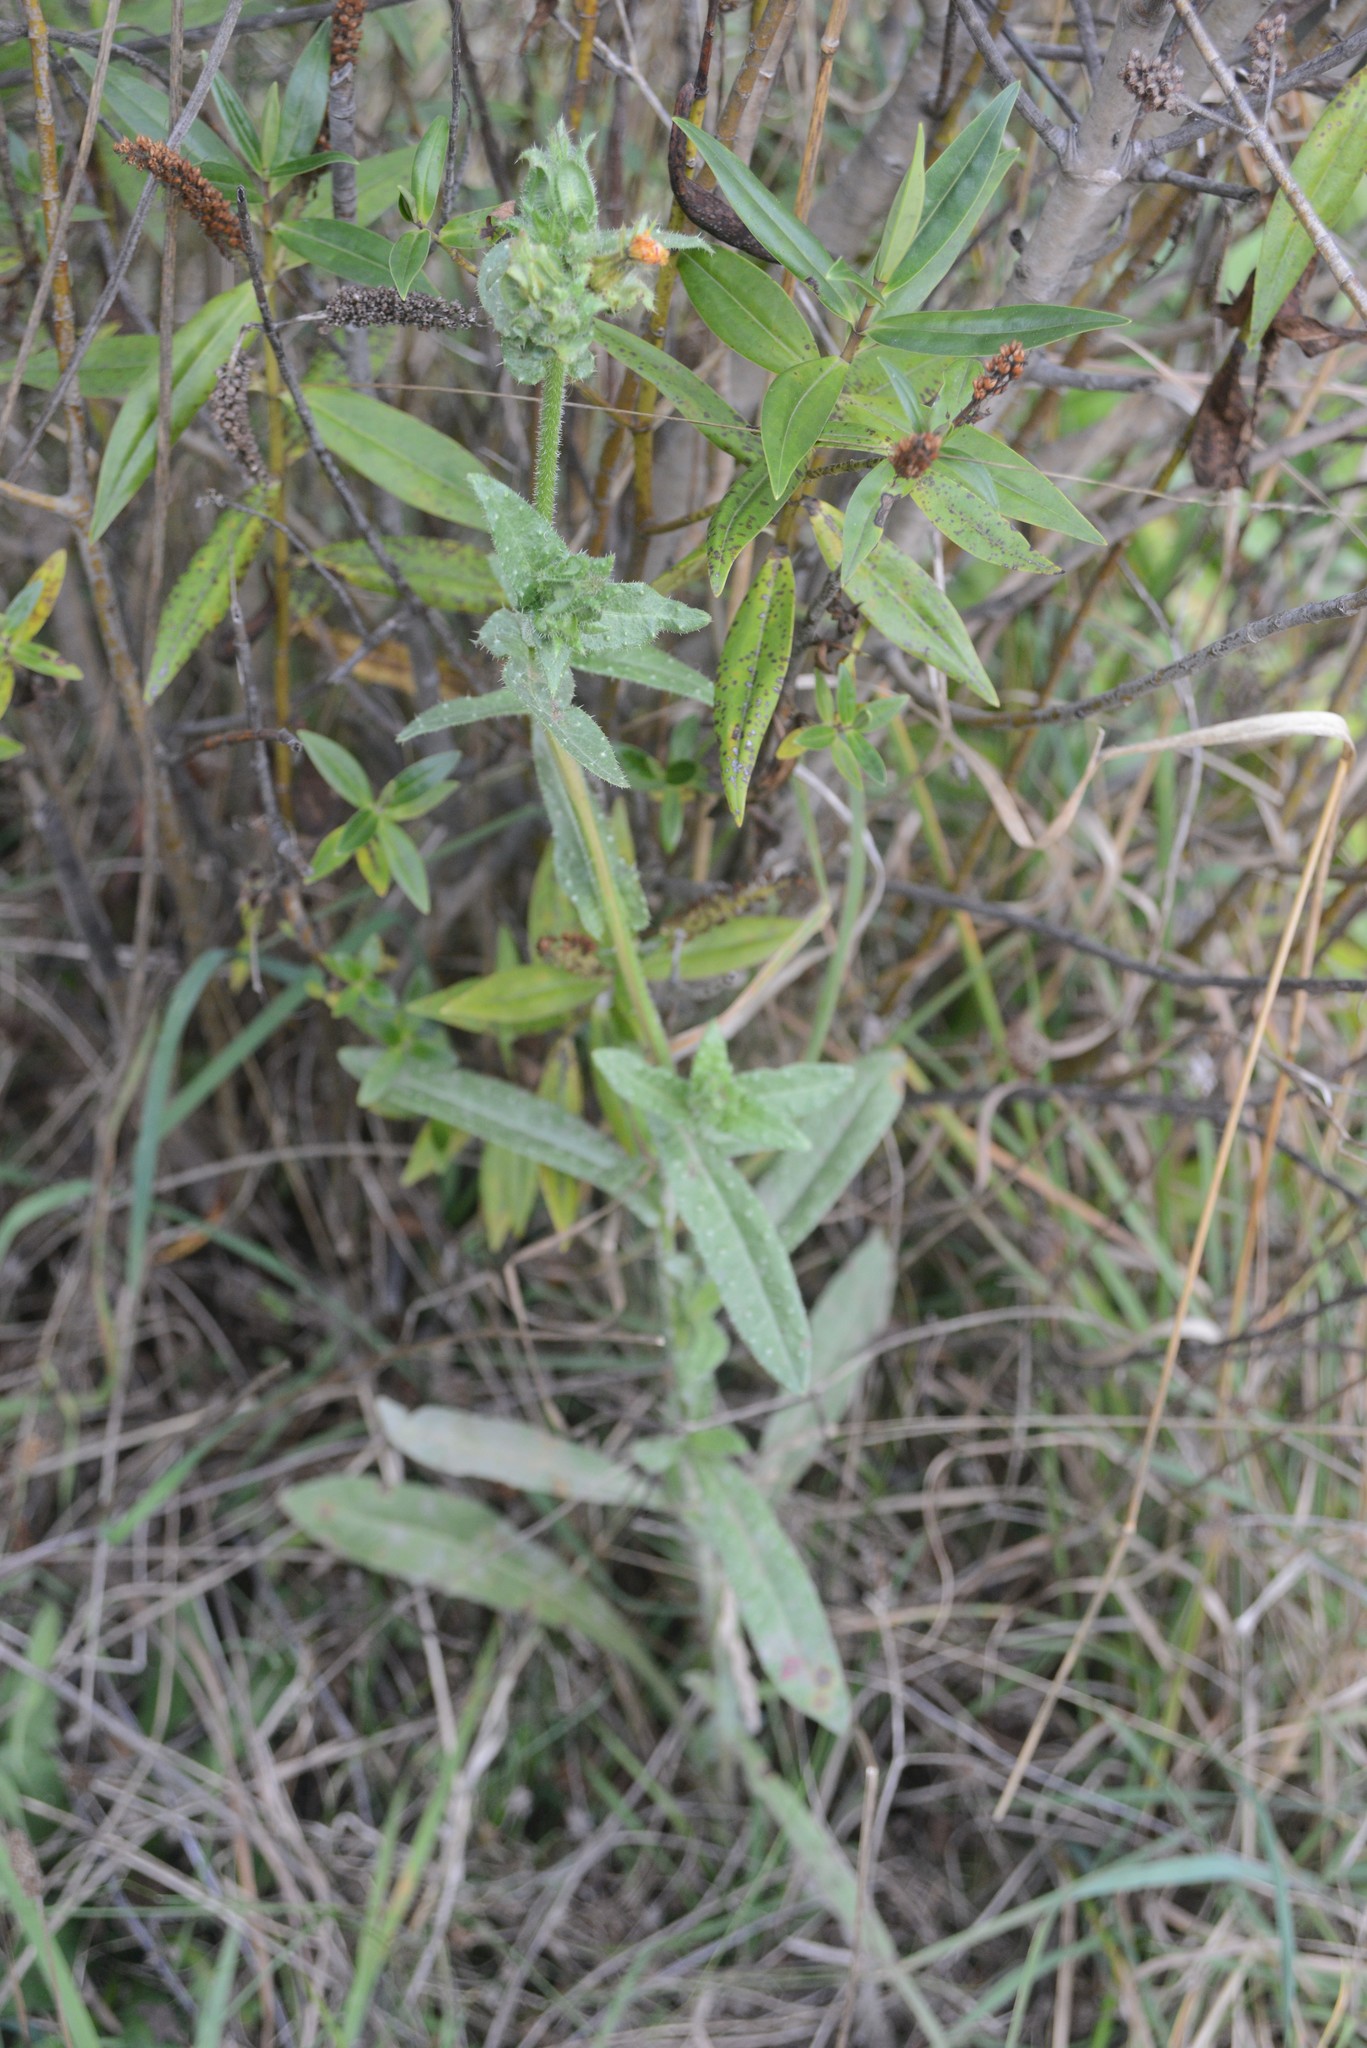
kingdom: Plantae
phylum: Tracheophyta
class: Magnoliopsida
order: Asterales
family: Asteraceae
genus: Helminthotheca
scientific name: Helminthotheca echioides
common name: Ox-tongue
